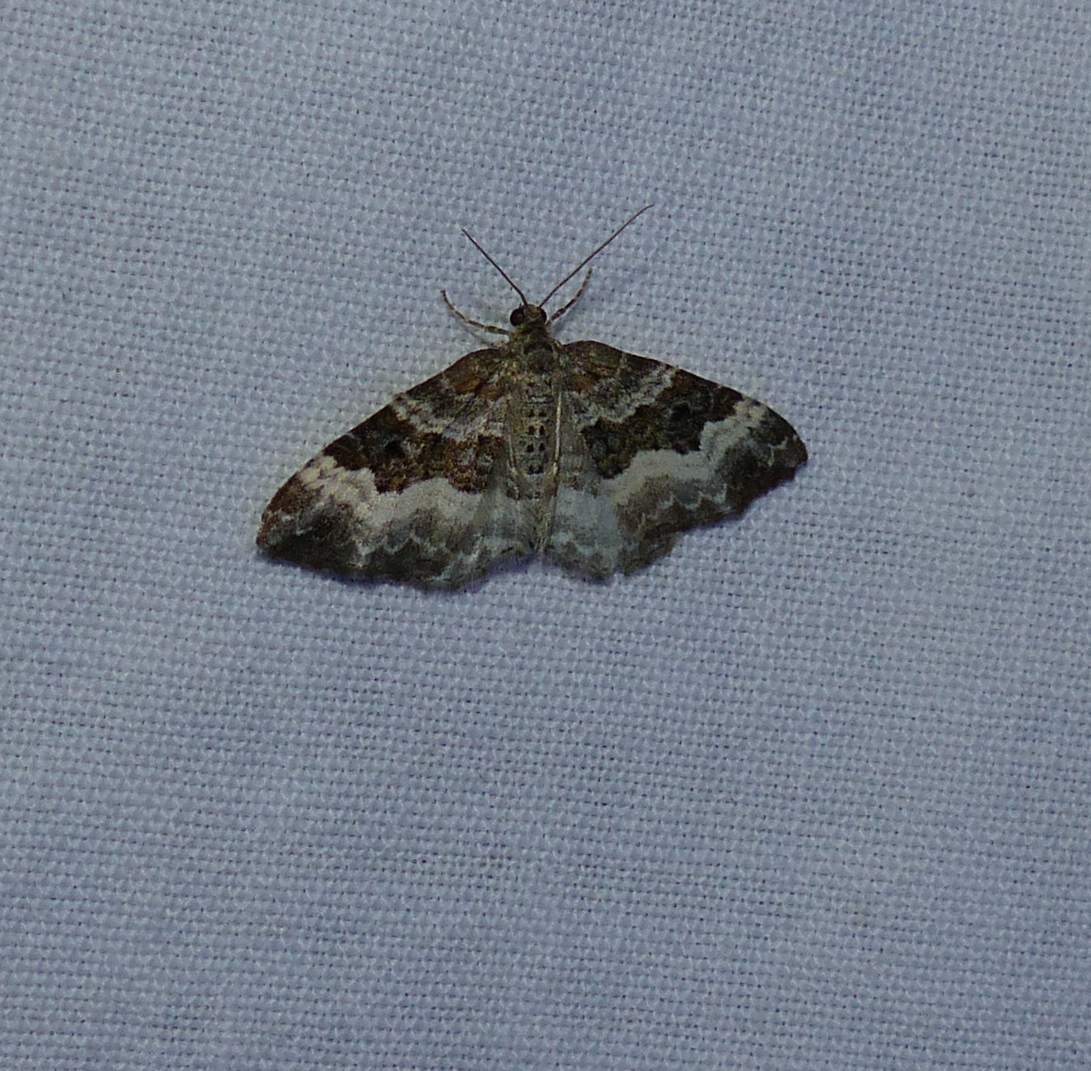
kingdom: Animalia
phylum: Arthropoda
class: Insecta
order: Lepidoptera
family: Geometridae
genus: Epirrhoe
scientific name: Epirrhoe alternata
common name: Common carpet
